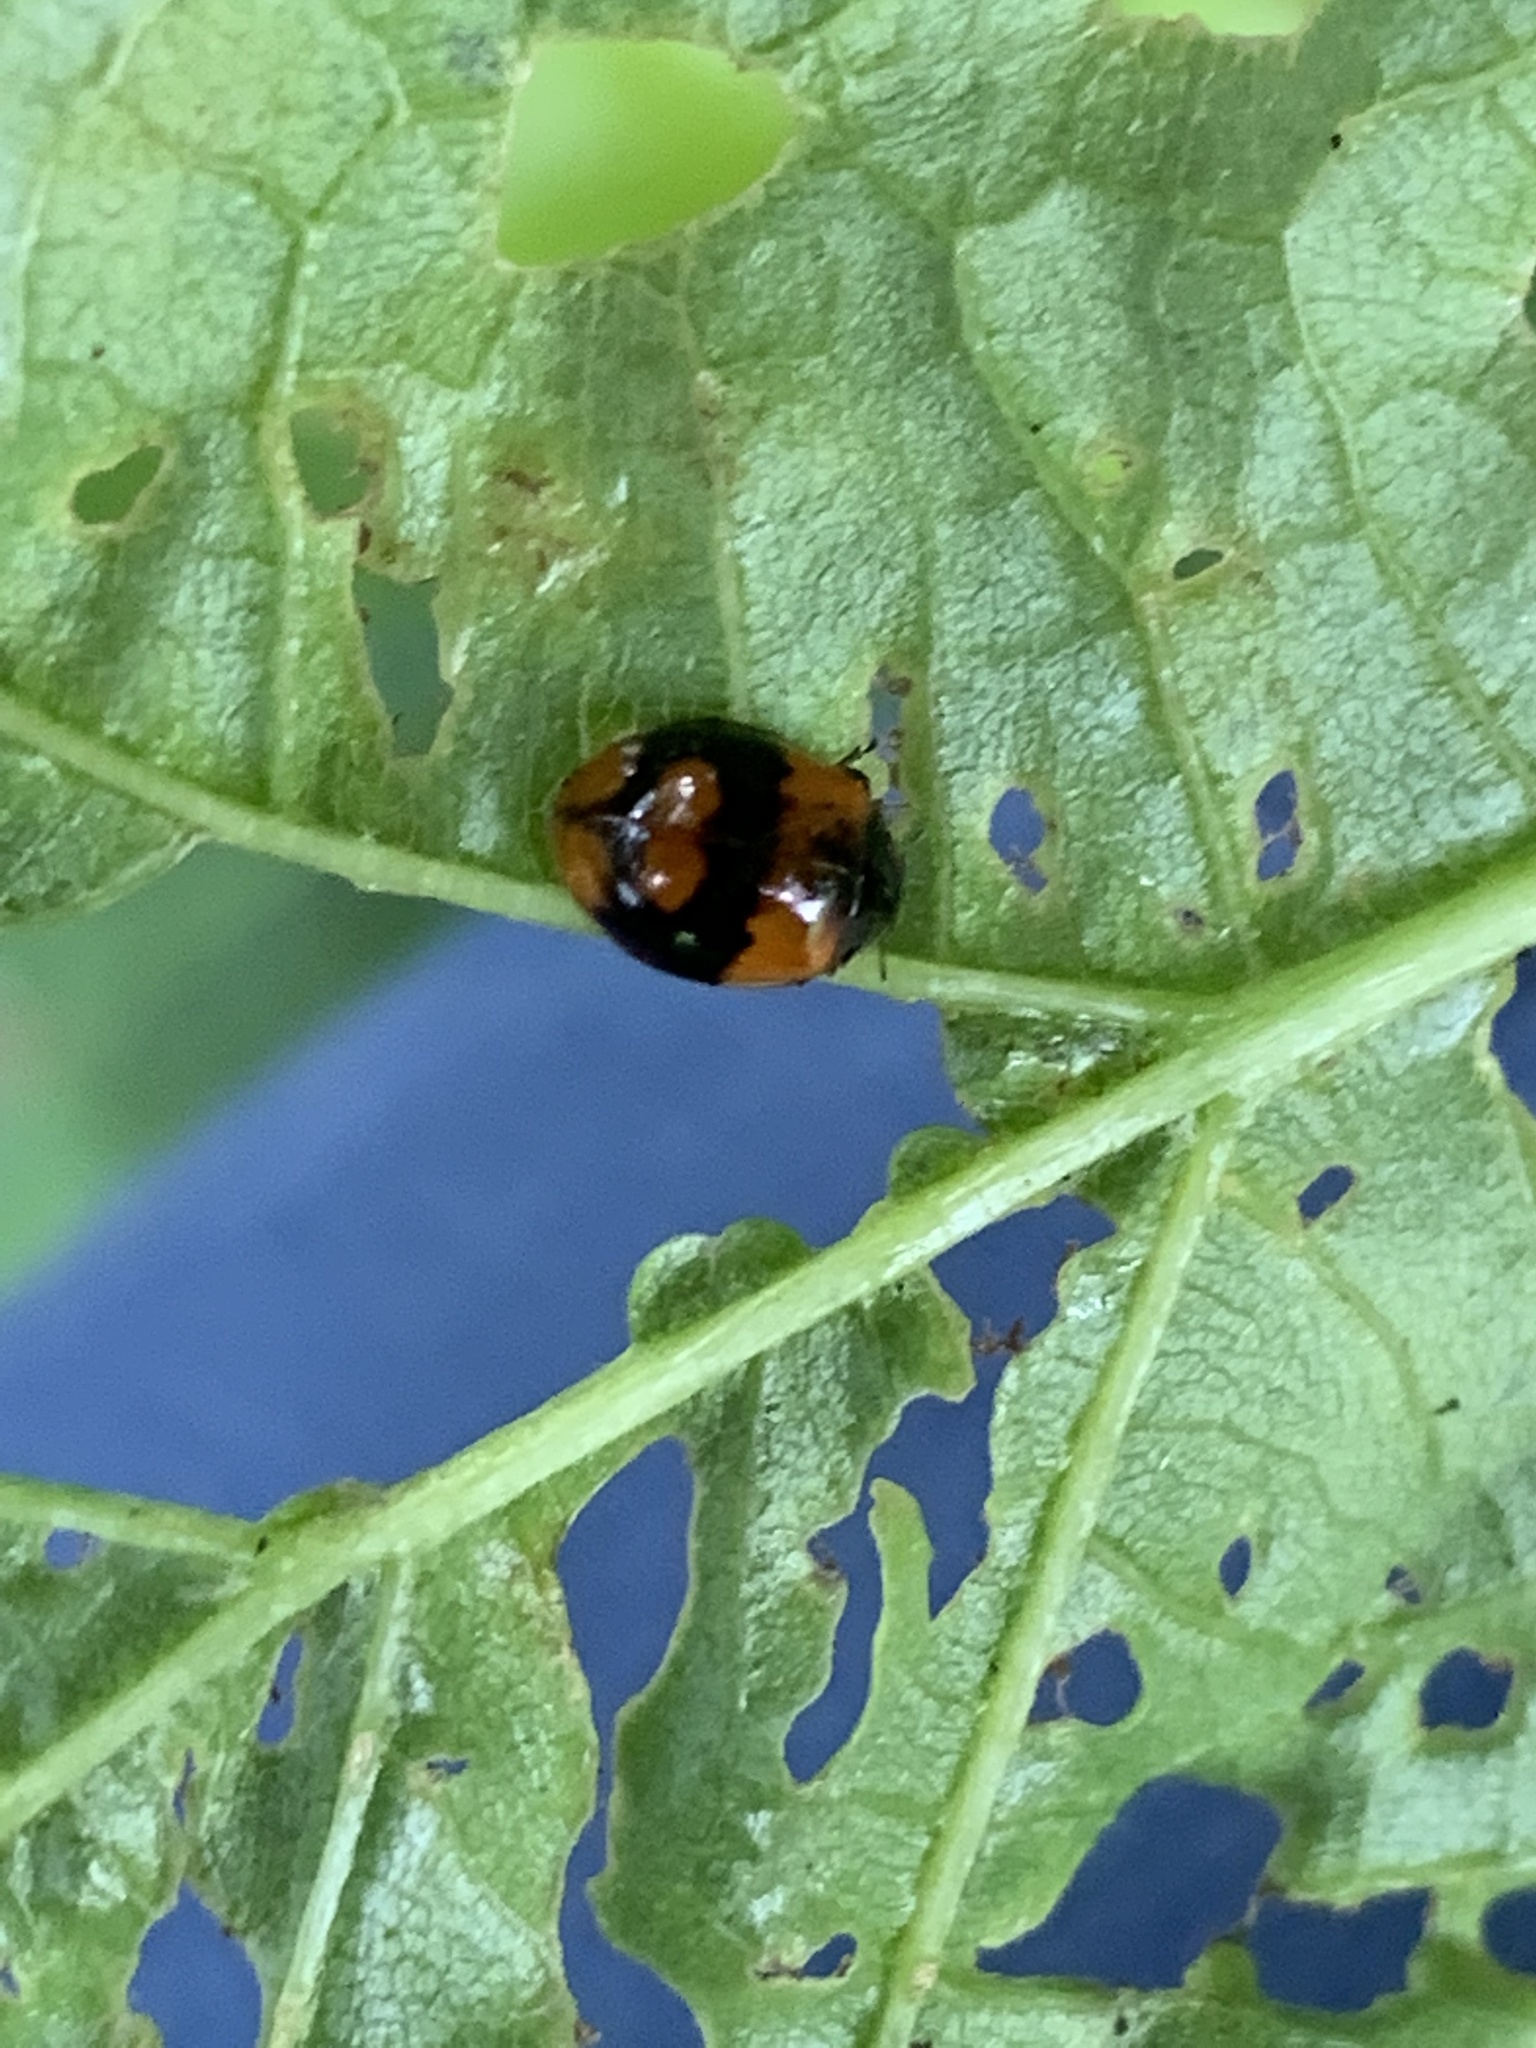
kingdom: Animalia
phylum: Arthropoda
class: Insecta
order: Coleoptera
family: Coccinellidae
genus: Adalia
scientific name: Adalia bipunctata
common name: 2-spot ladybird
